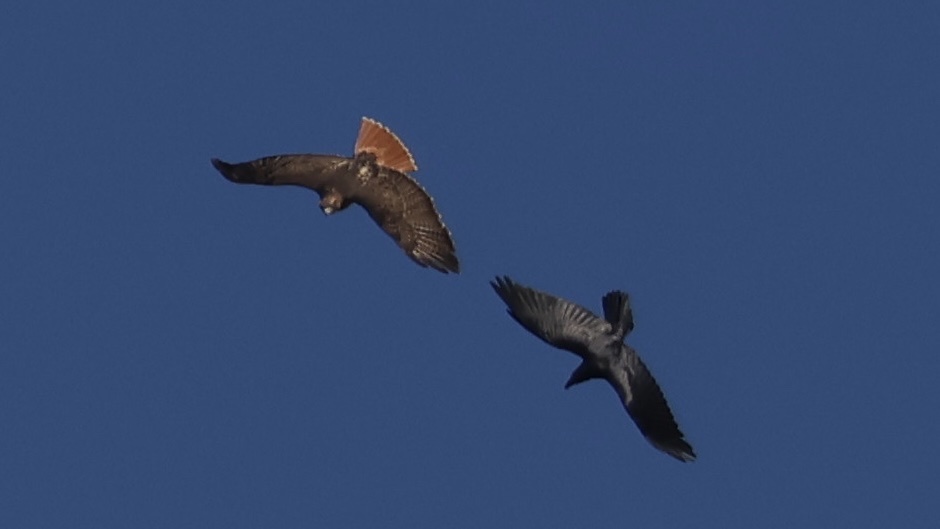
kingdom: Animalia
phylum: Chordata
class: Aves
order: Passeriformes
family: Corvidae
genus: Corvus
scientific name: Corvus corax
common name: Common raven
